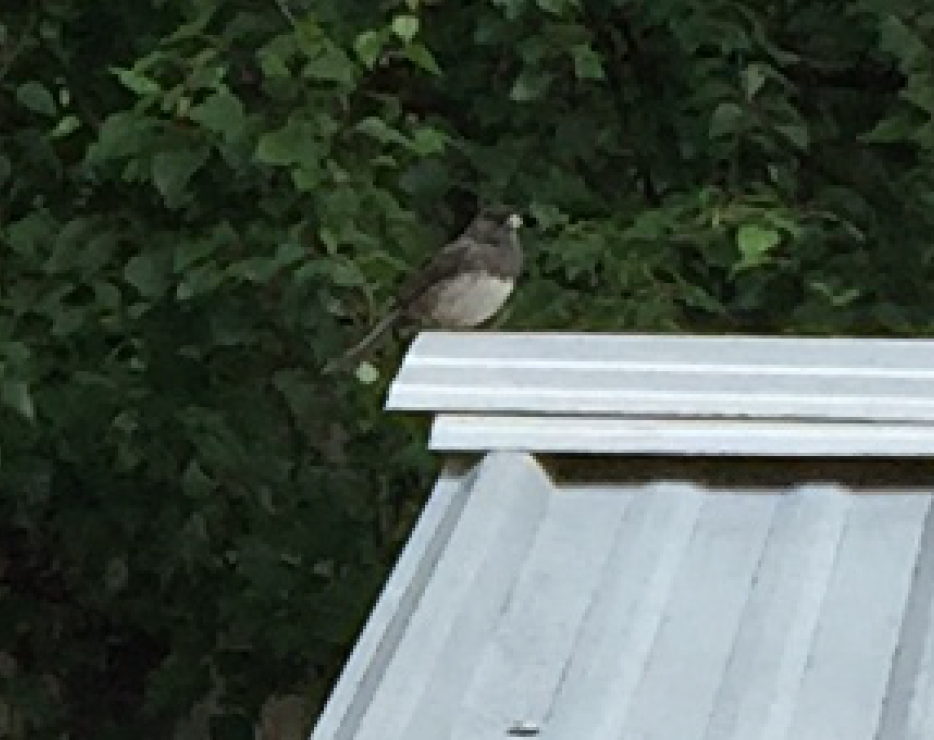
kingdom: Animalia
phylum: Chordata
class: Aves
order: Passeriformes
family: Passerellidae
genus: Junco
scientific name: Junco hyemalis
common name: Dark-eyed junco
